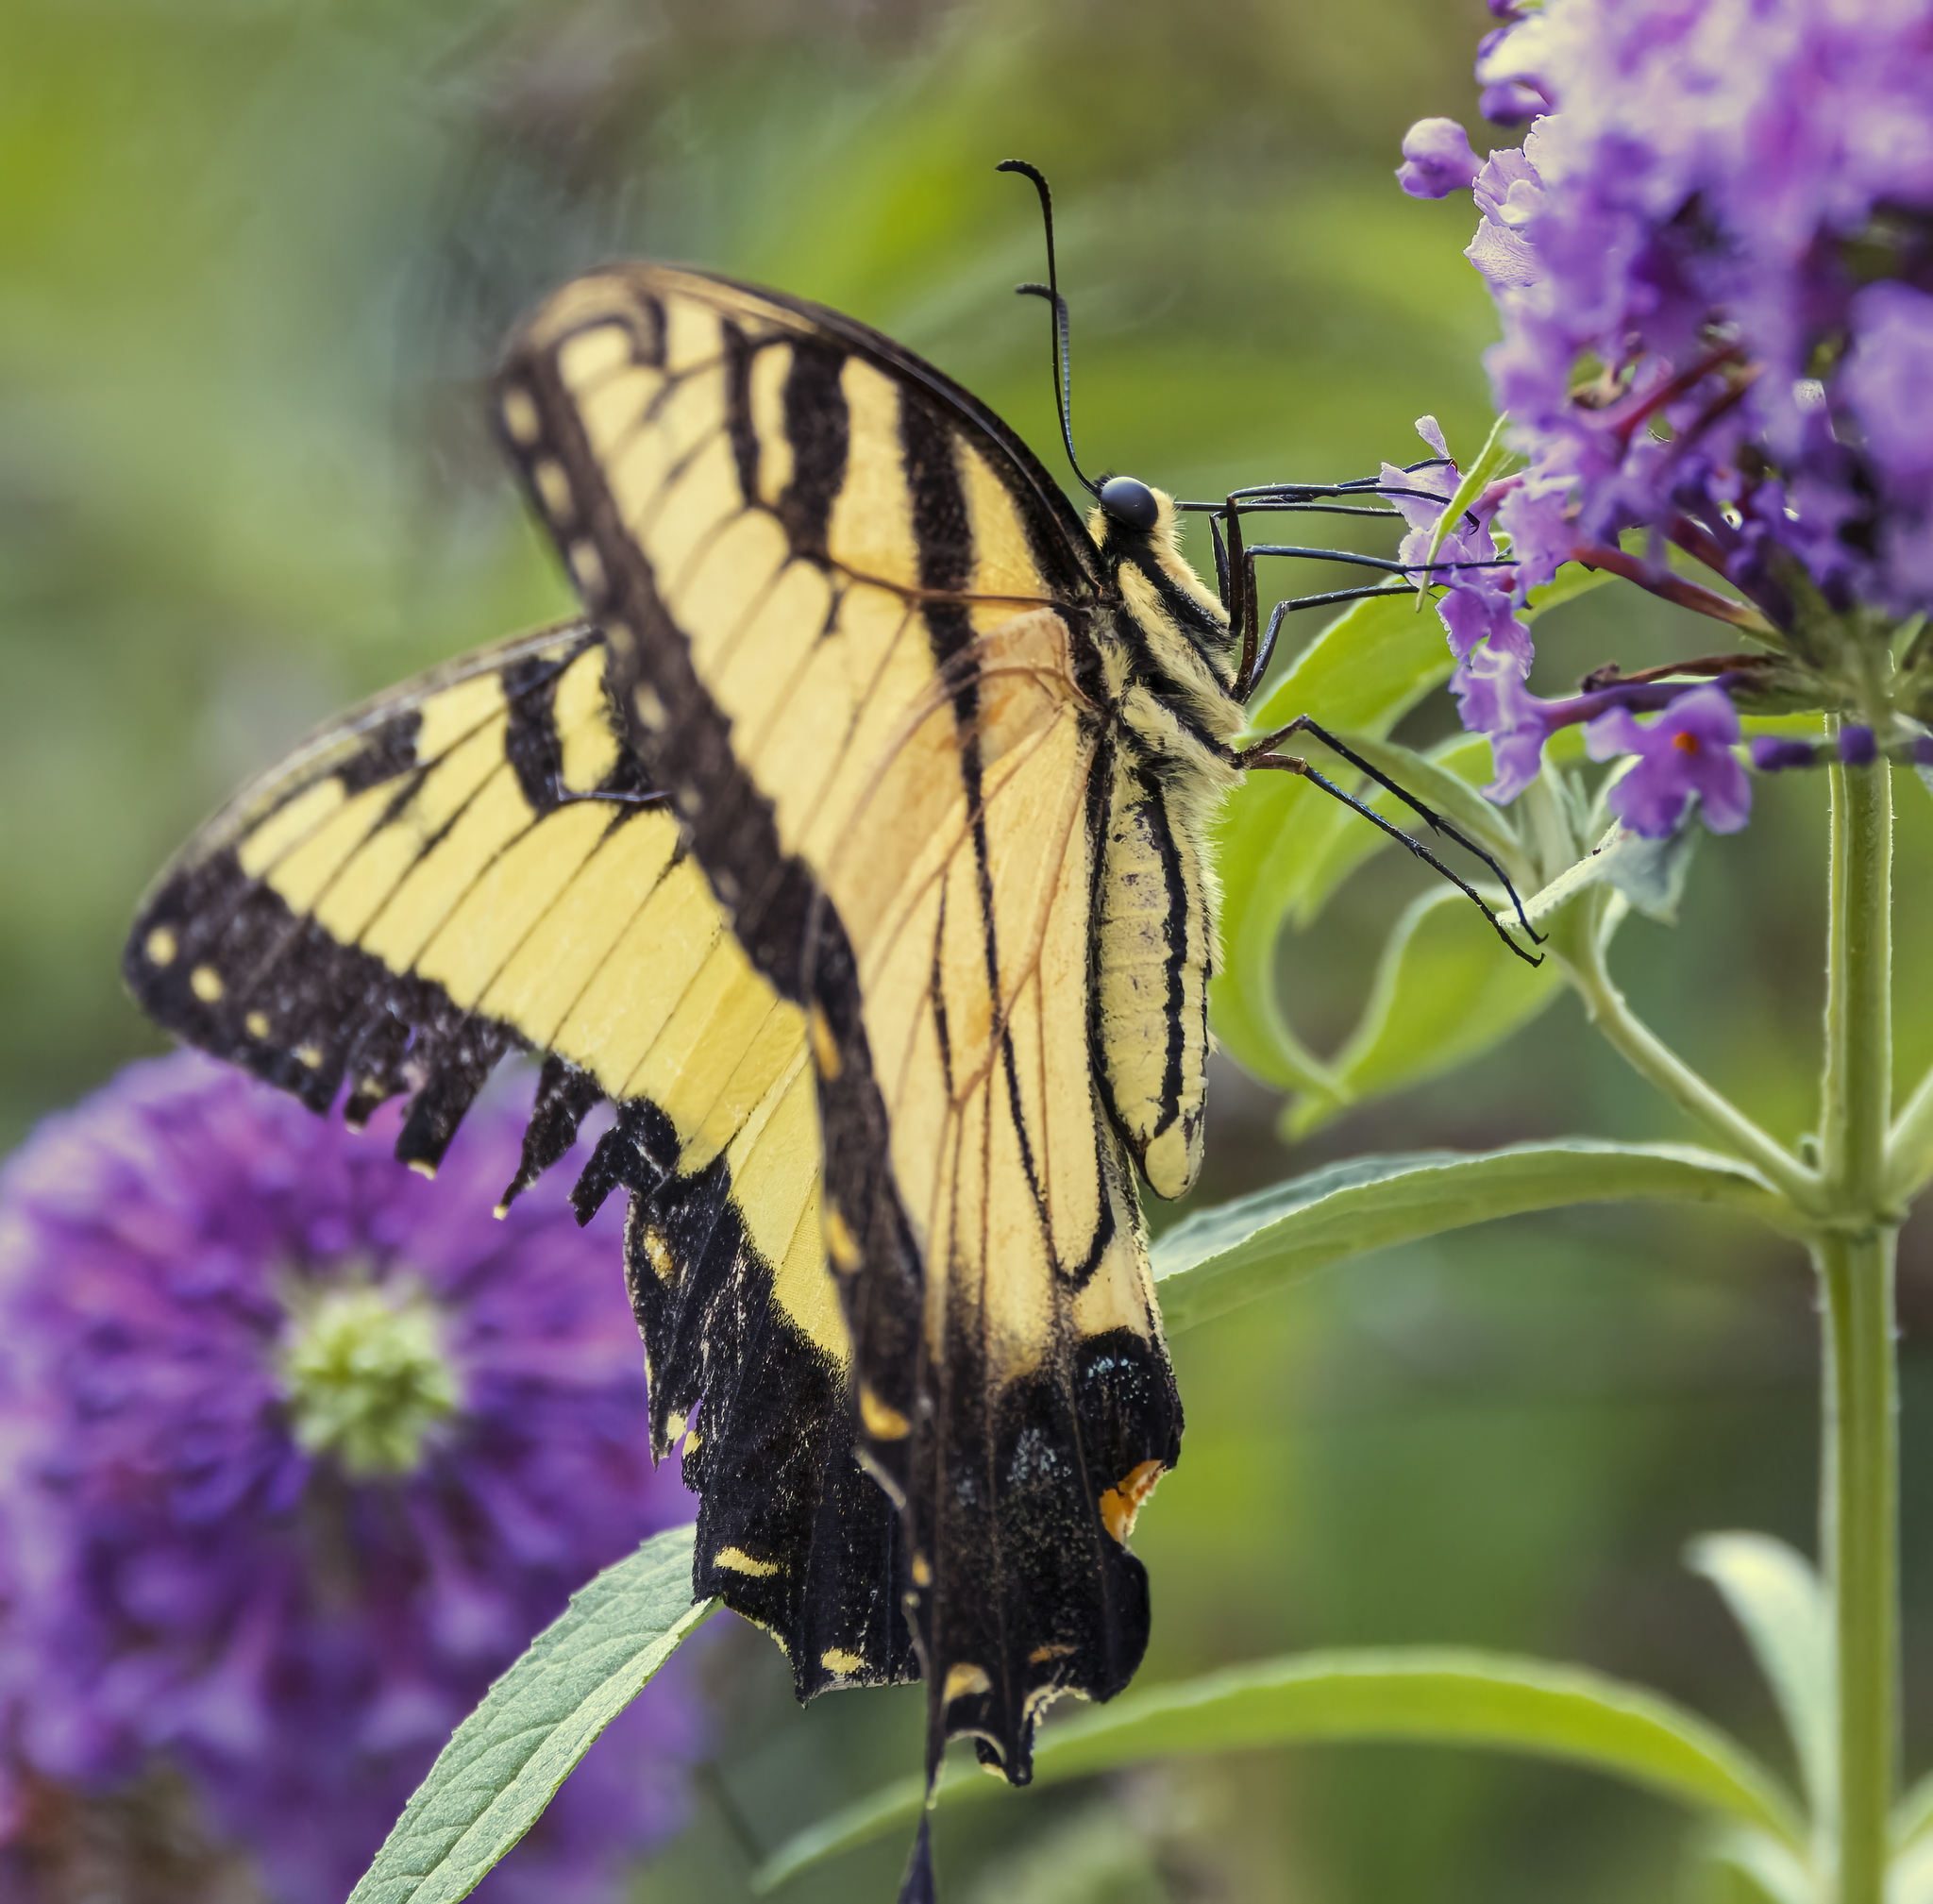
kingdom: Animalia
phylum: Arthropoda
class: Insecta
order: Lepidoptera
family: Papilionidae
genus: Papilio
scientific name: Papilio glaucus
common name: Tiger swallowtail
